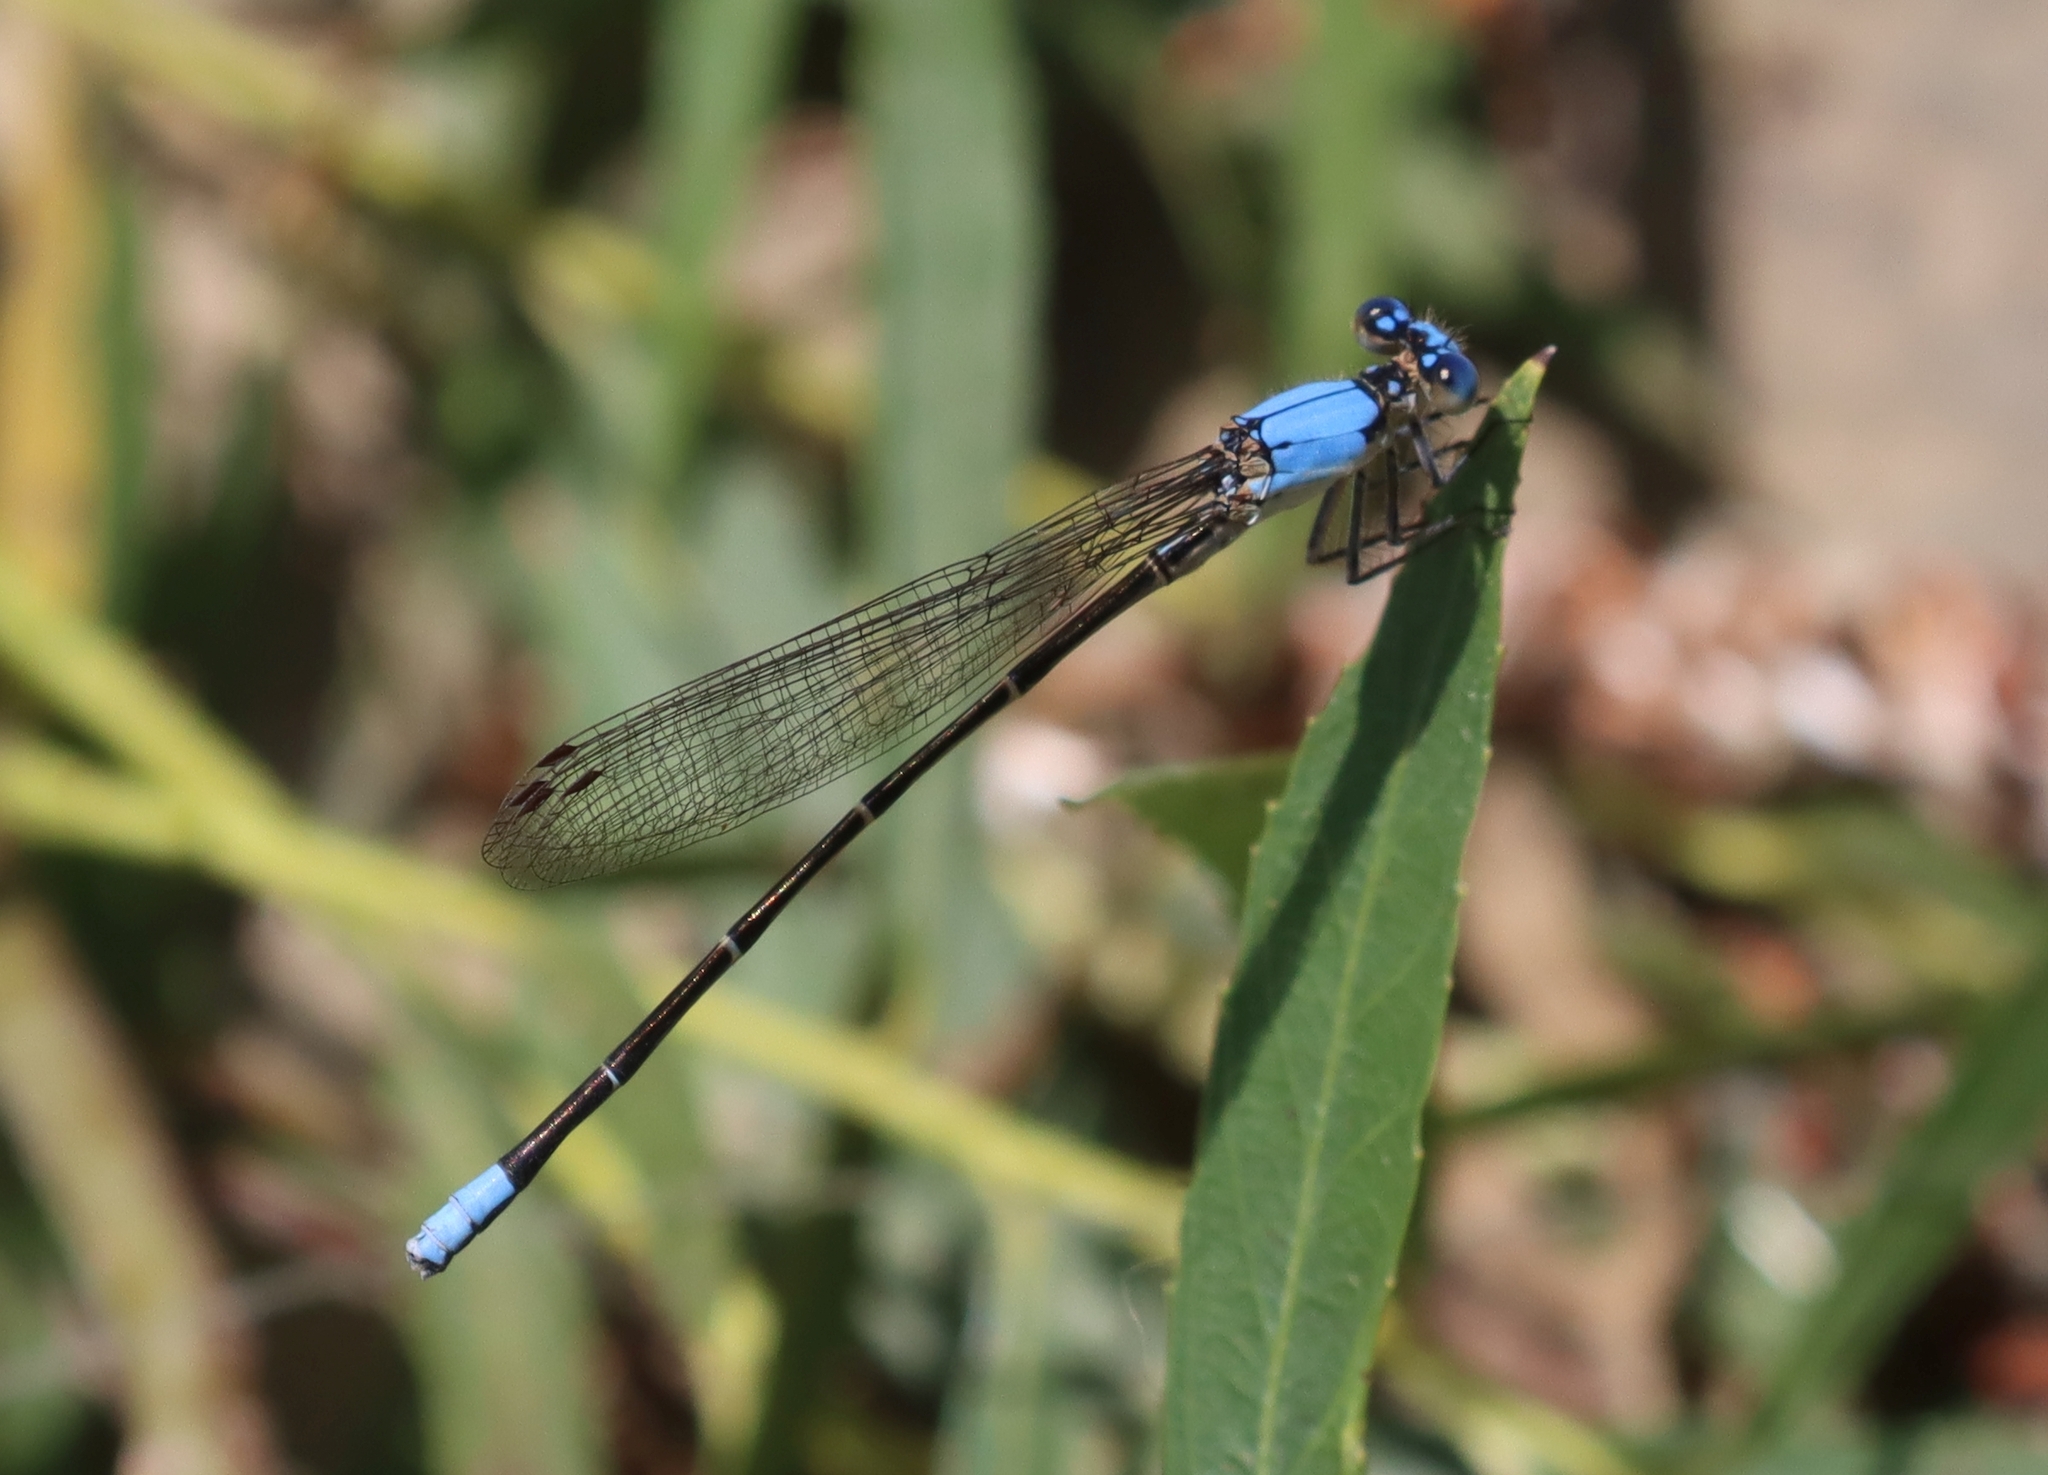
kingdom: Animalia
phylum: Arthropoda
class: Insecta
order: Odonata
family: Coenagrionidae
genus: Argia
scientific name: Argia apicalis
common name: Blue-fronted dancer
